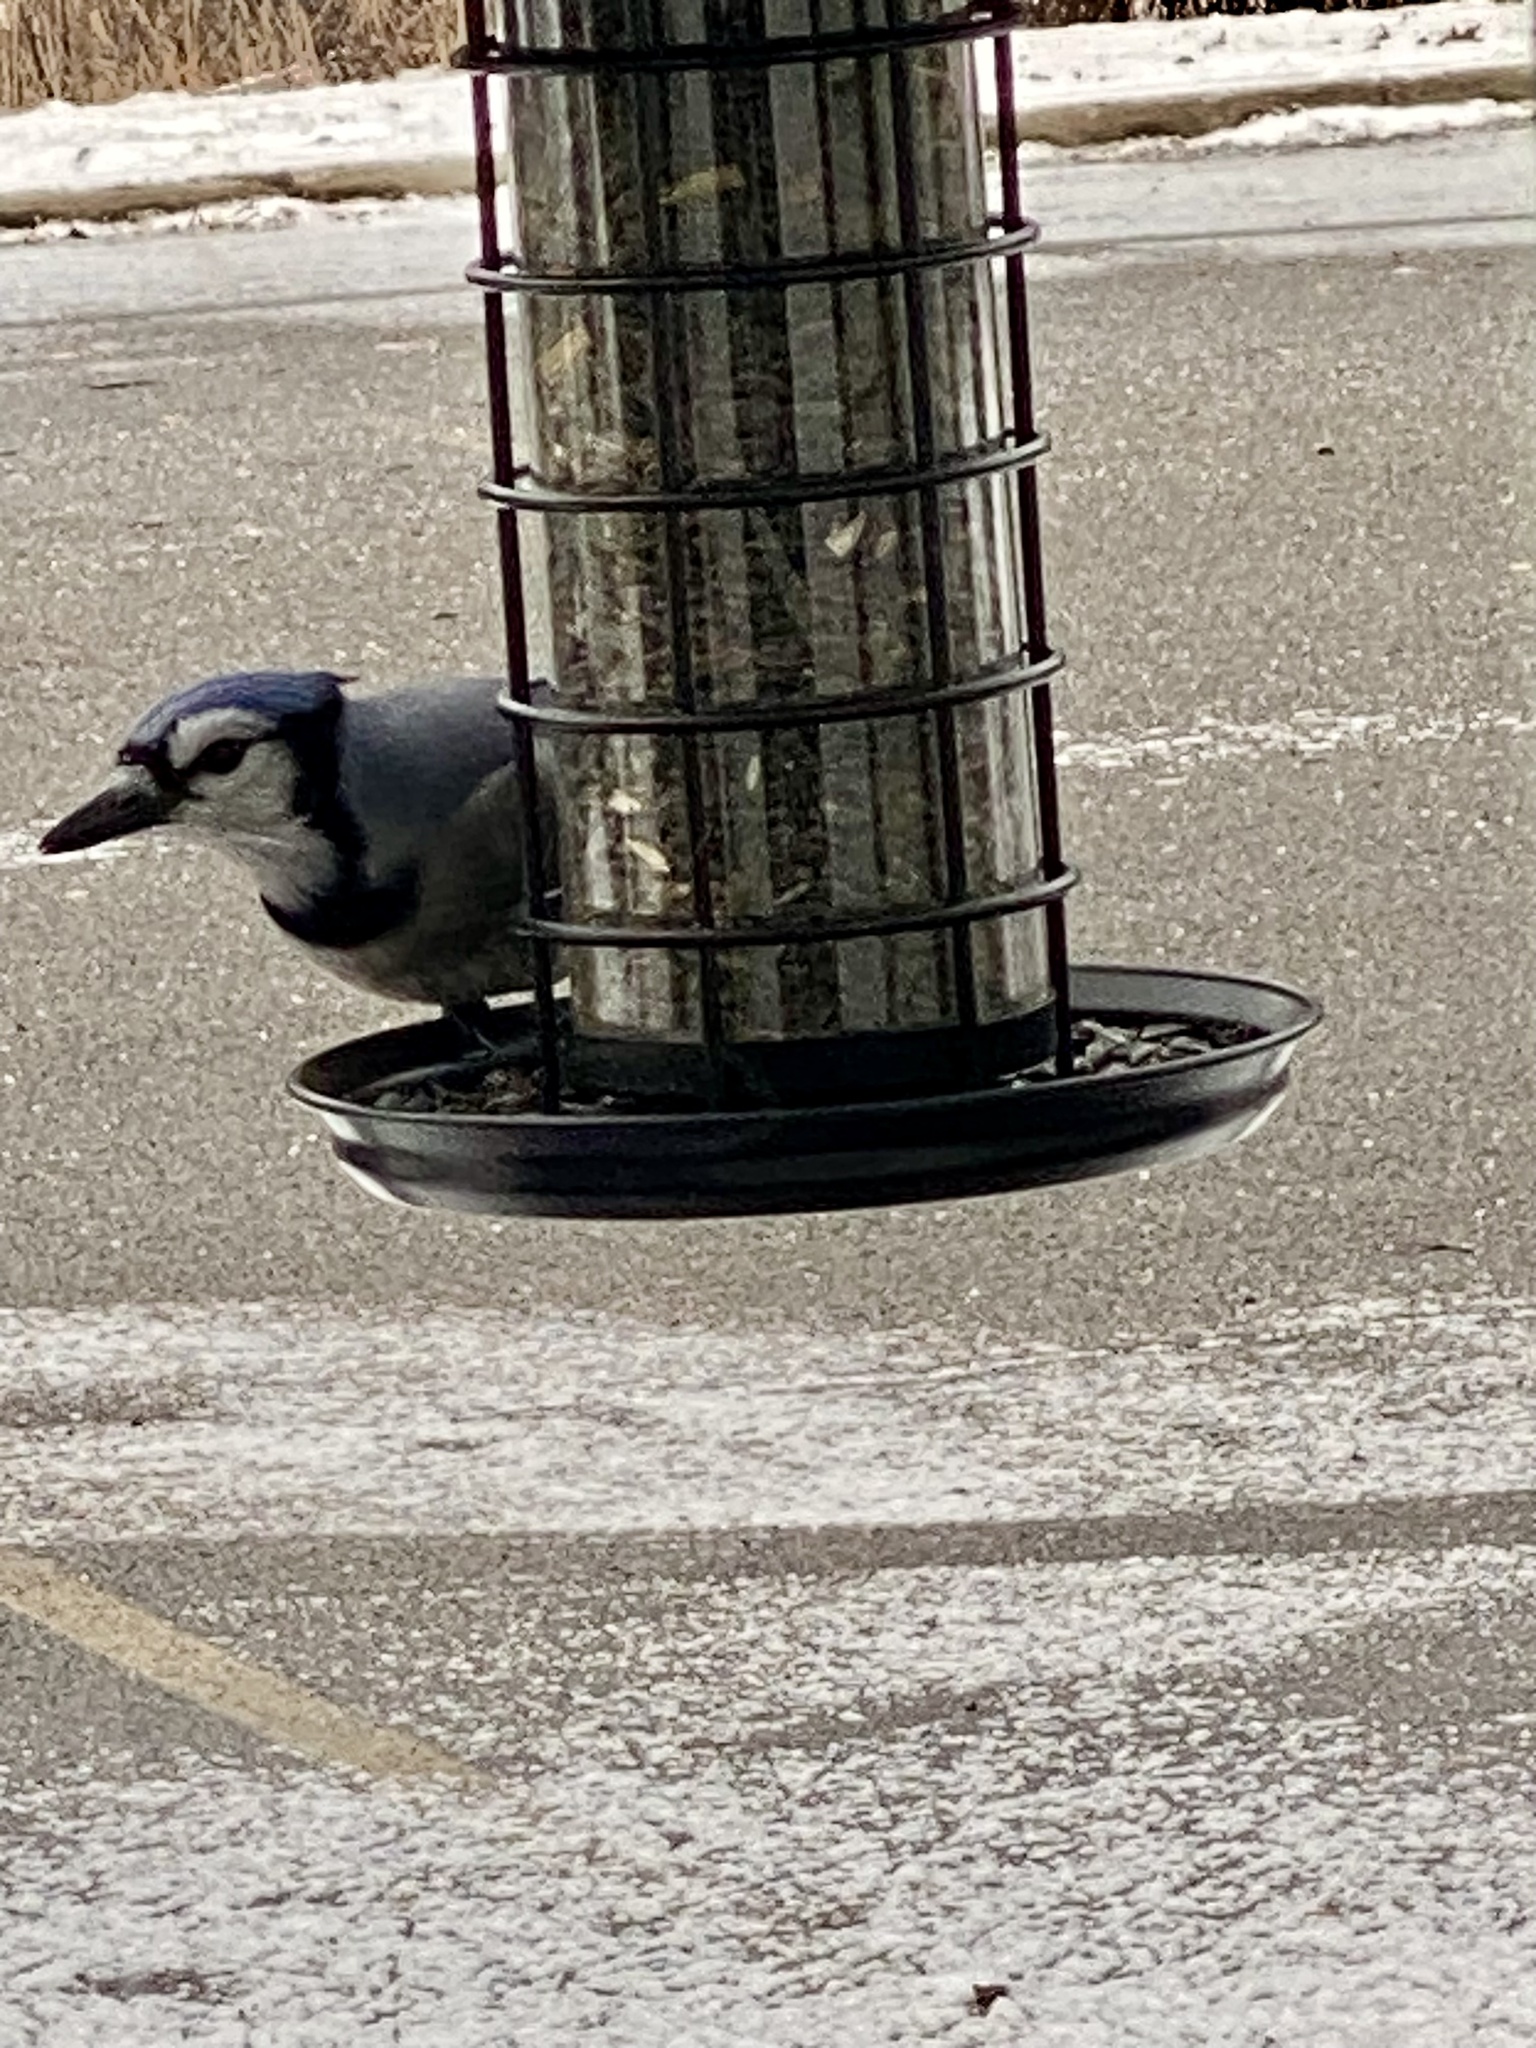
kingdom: Animalia
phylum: Chordata
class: Aves
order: Passeriformes
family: Corvidae
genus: Cyanocitta
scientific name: Cyanocitta cristata
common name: Blue jay
